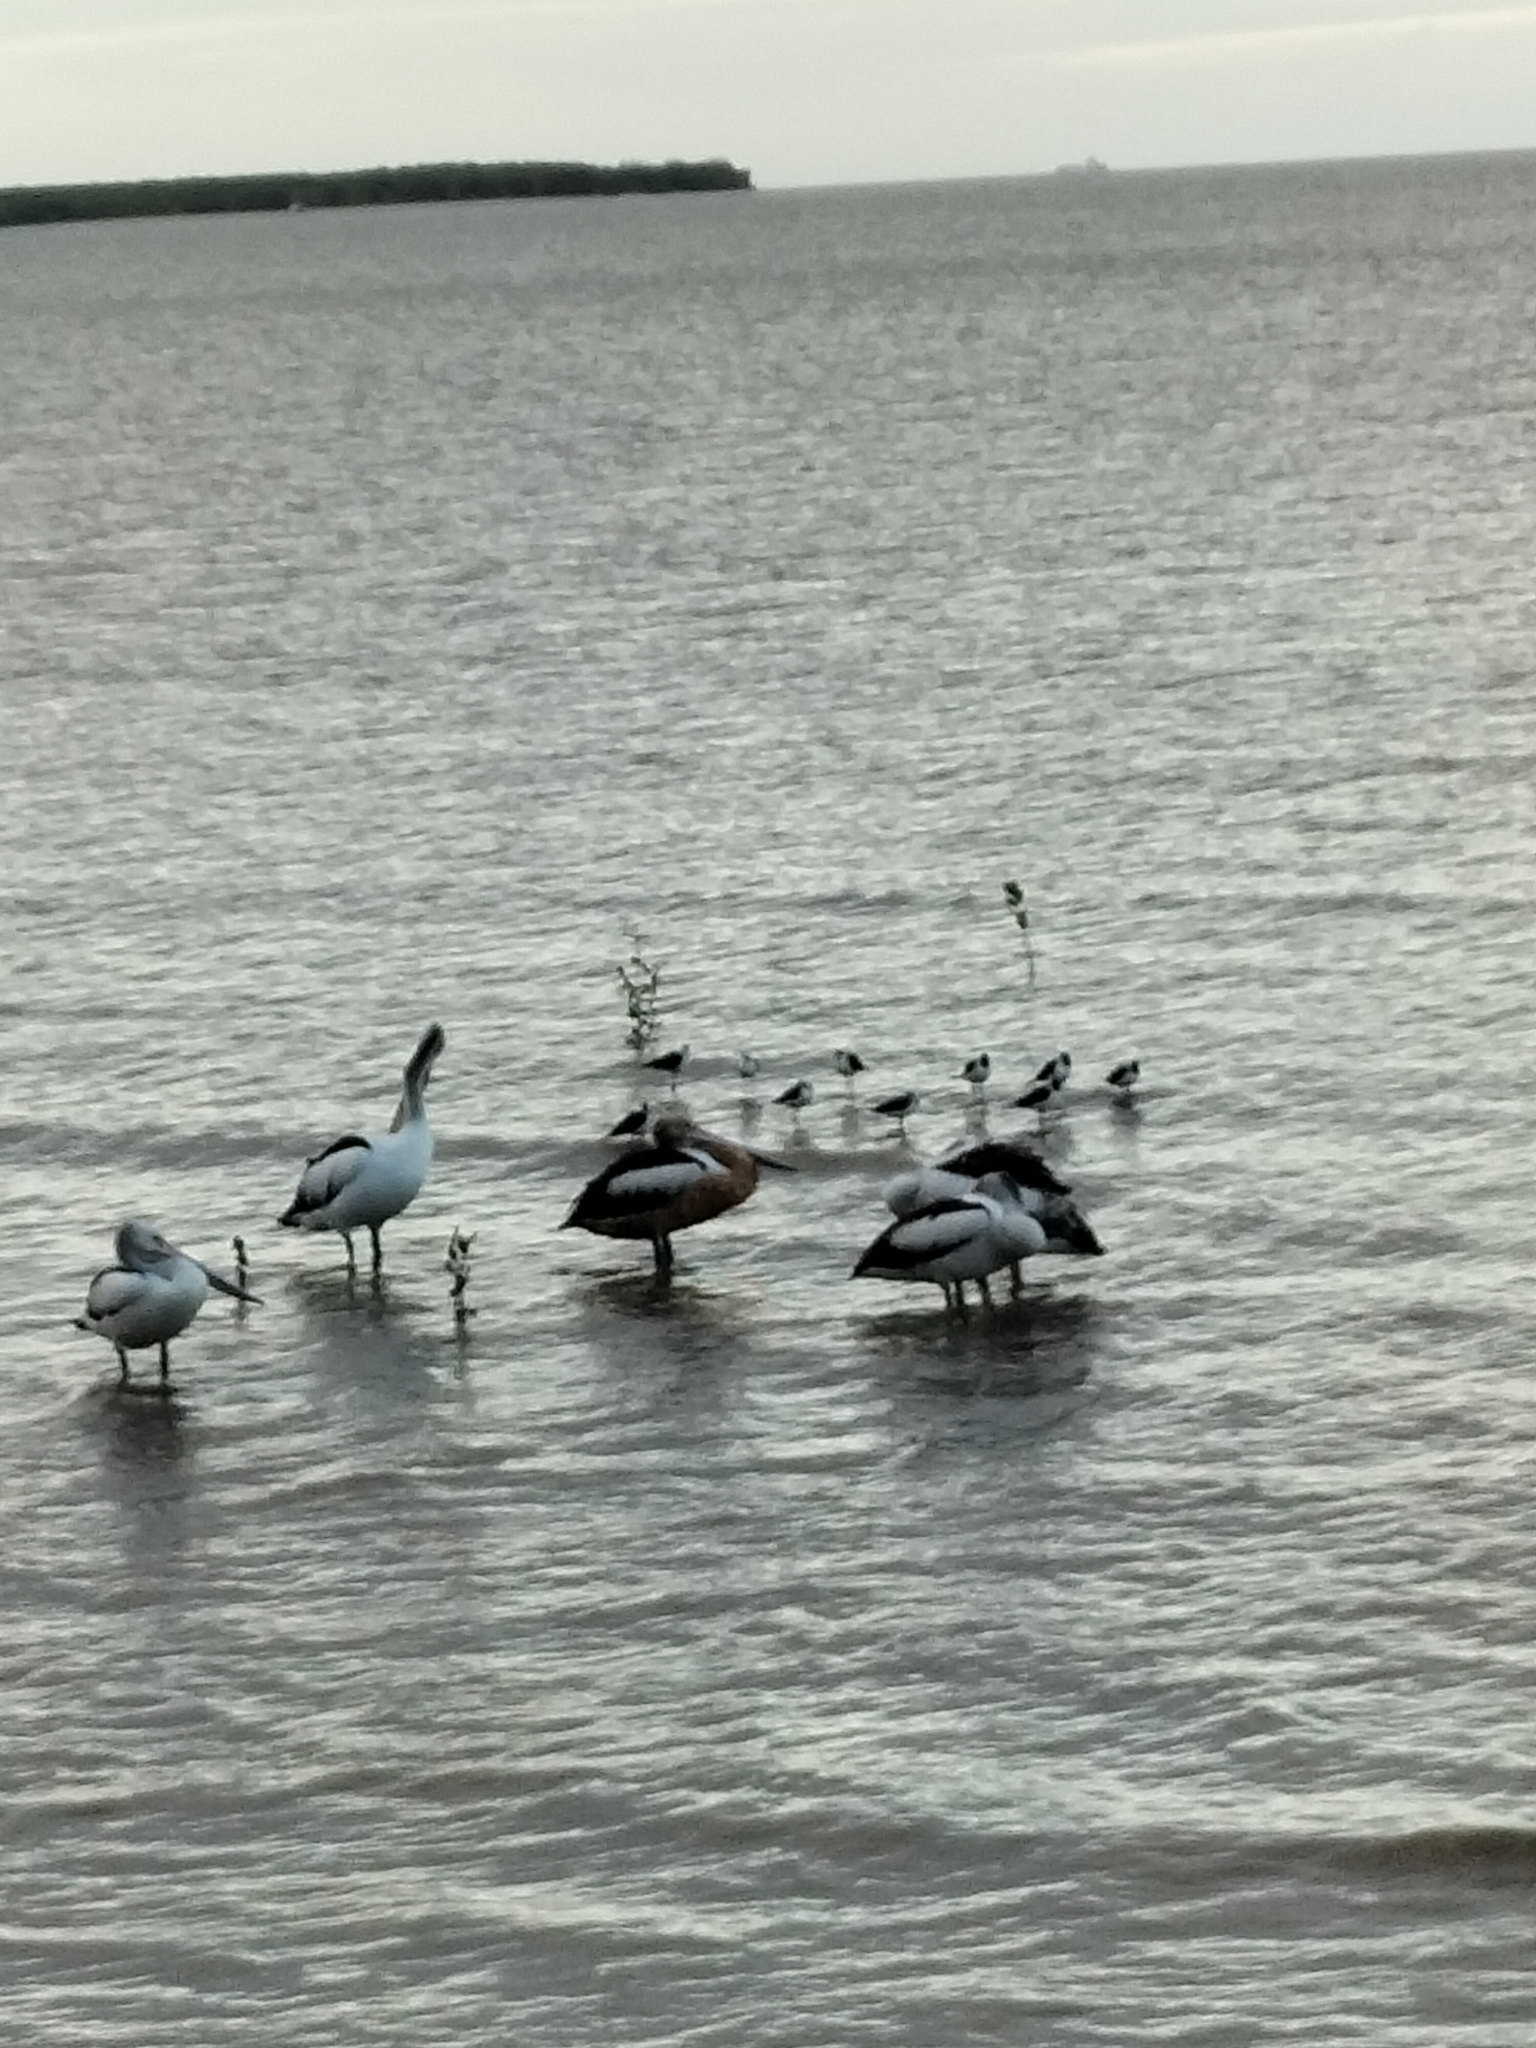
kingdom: Animalia
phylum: Chordata
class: Aves
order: Pelecaniformes
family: Pelecanidae
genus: Pelecanus
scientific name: Pelecanus conspicillatus
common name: Australian pelican
